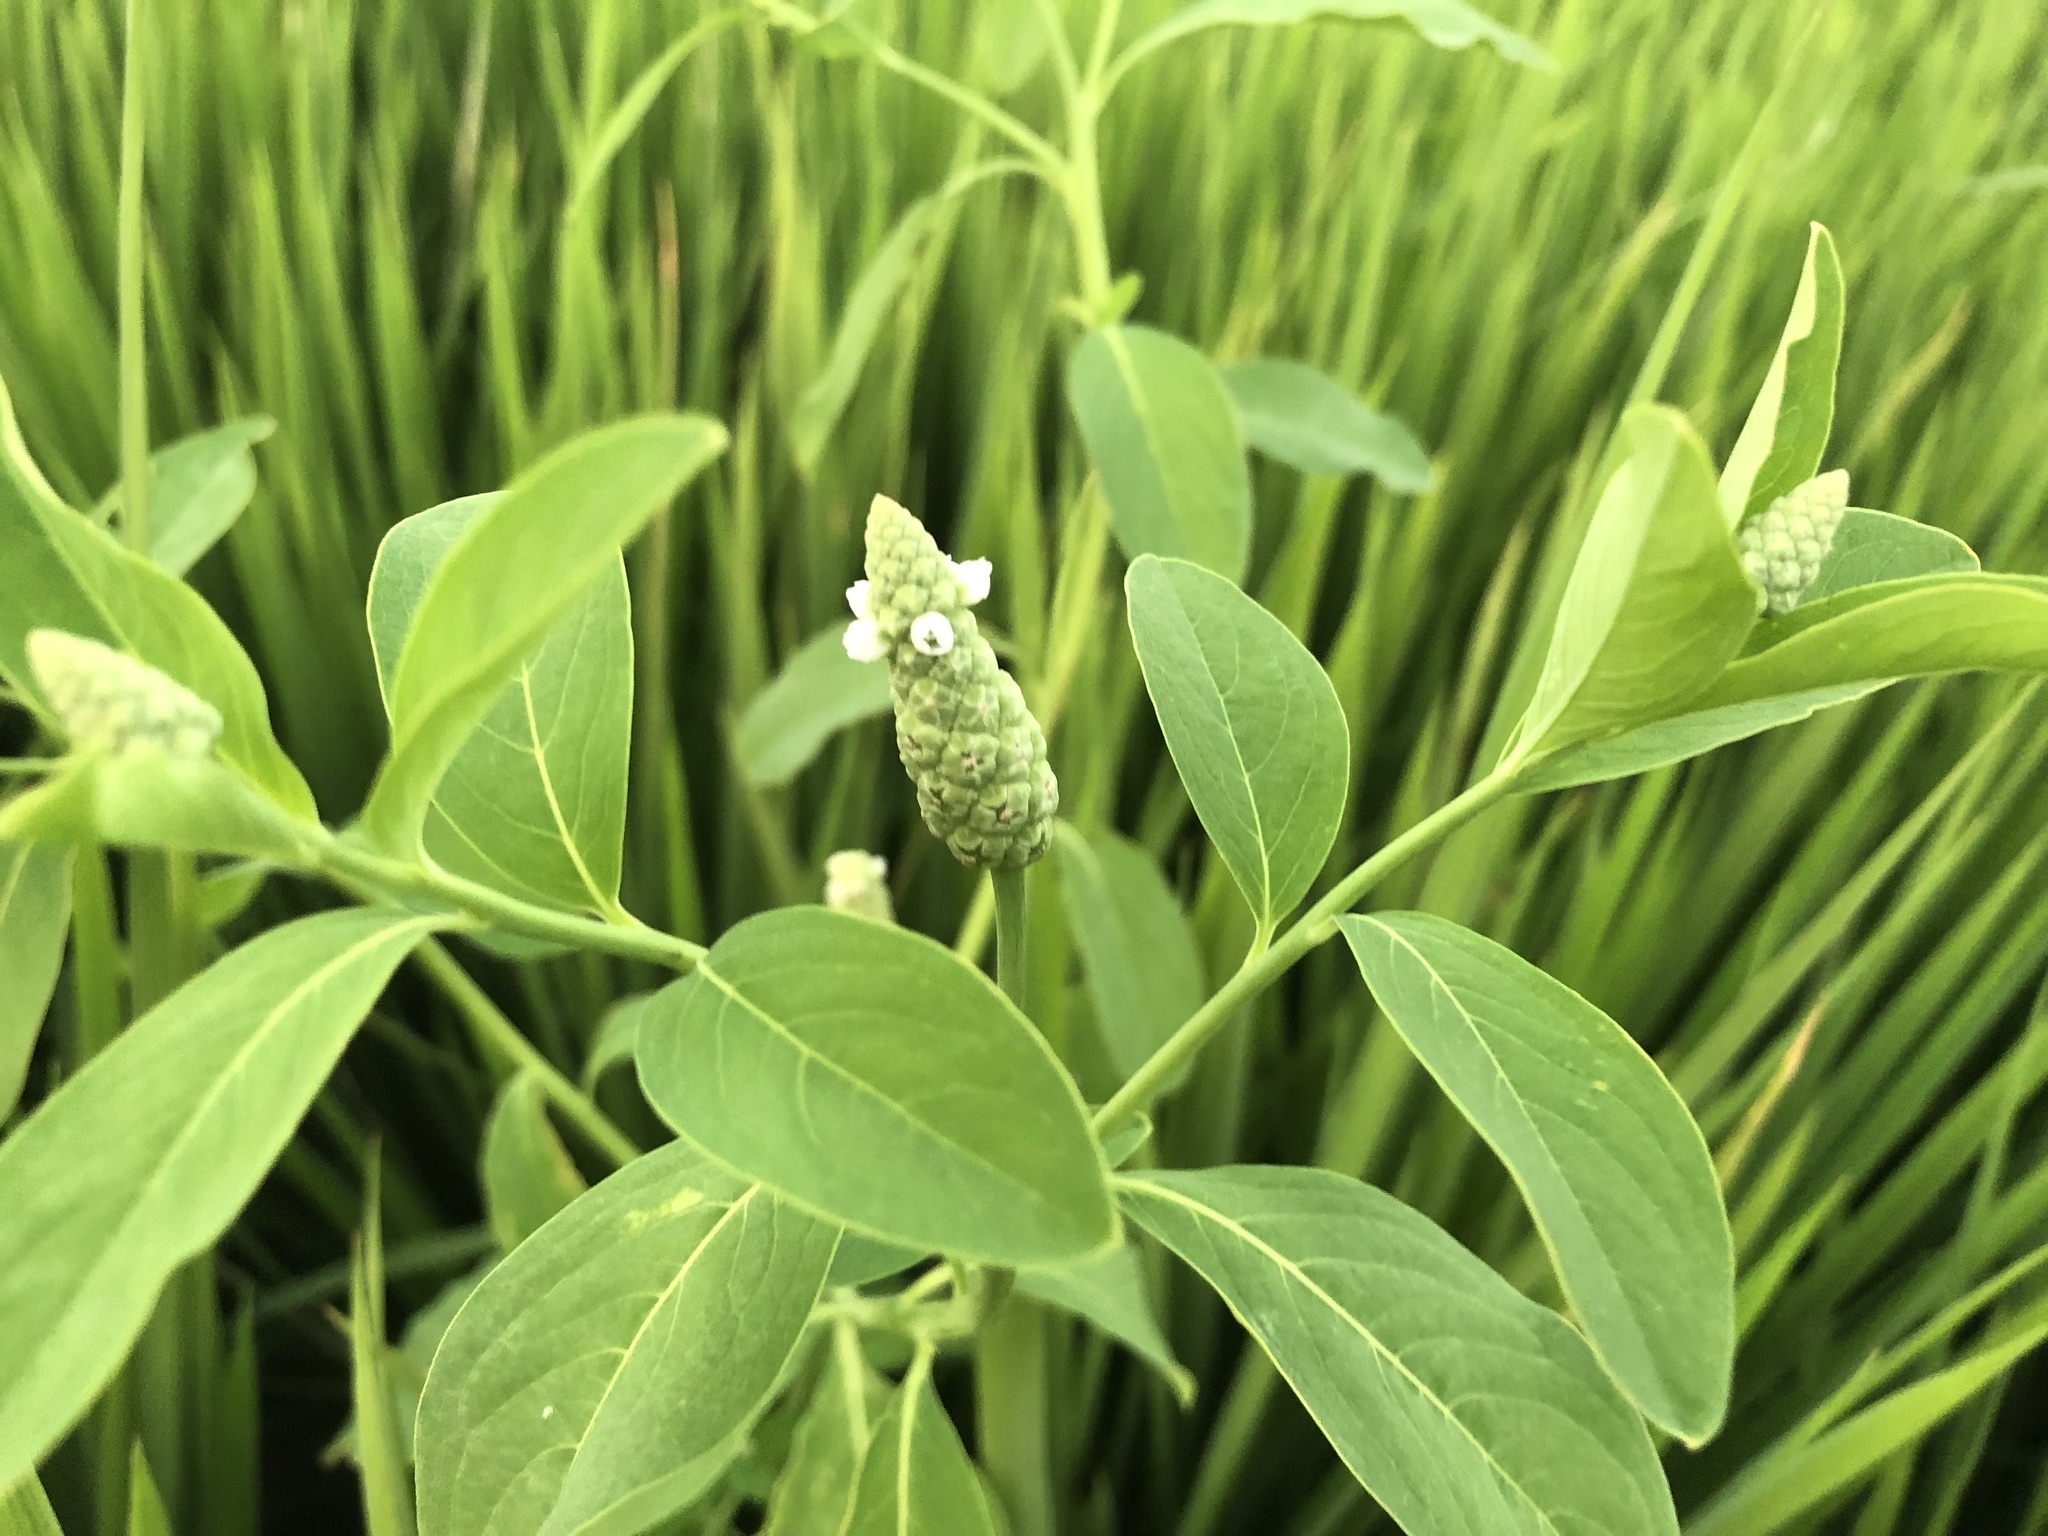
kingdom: Plantae
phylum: Tracheophyta
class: Magnoliopsida
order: Solanales
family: Sphenocleaceae
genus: Sphenoclea
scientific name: Sphenoclea zeylanica
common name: Chickenspike
